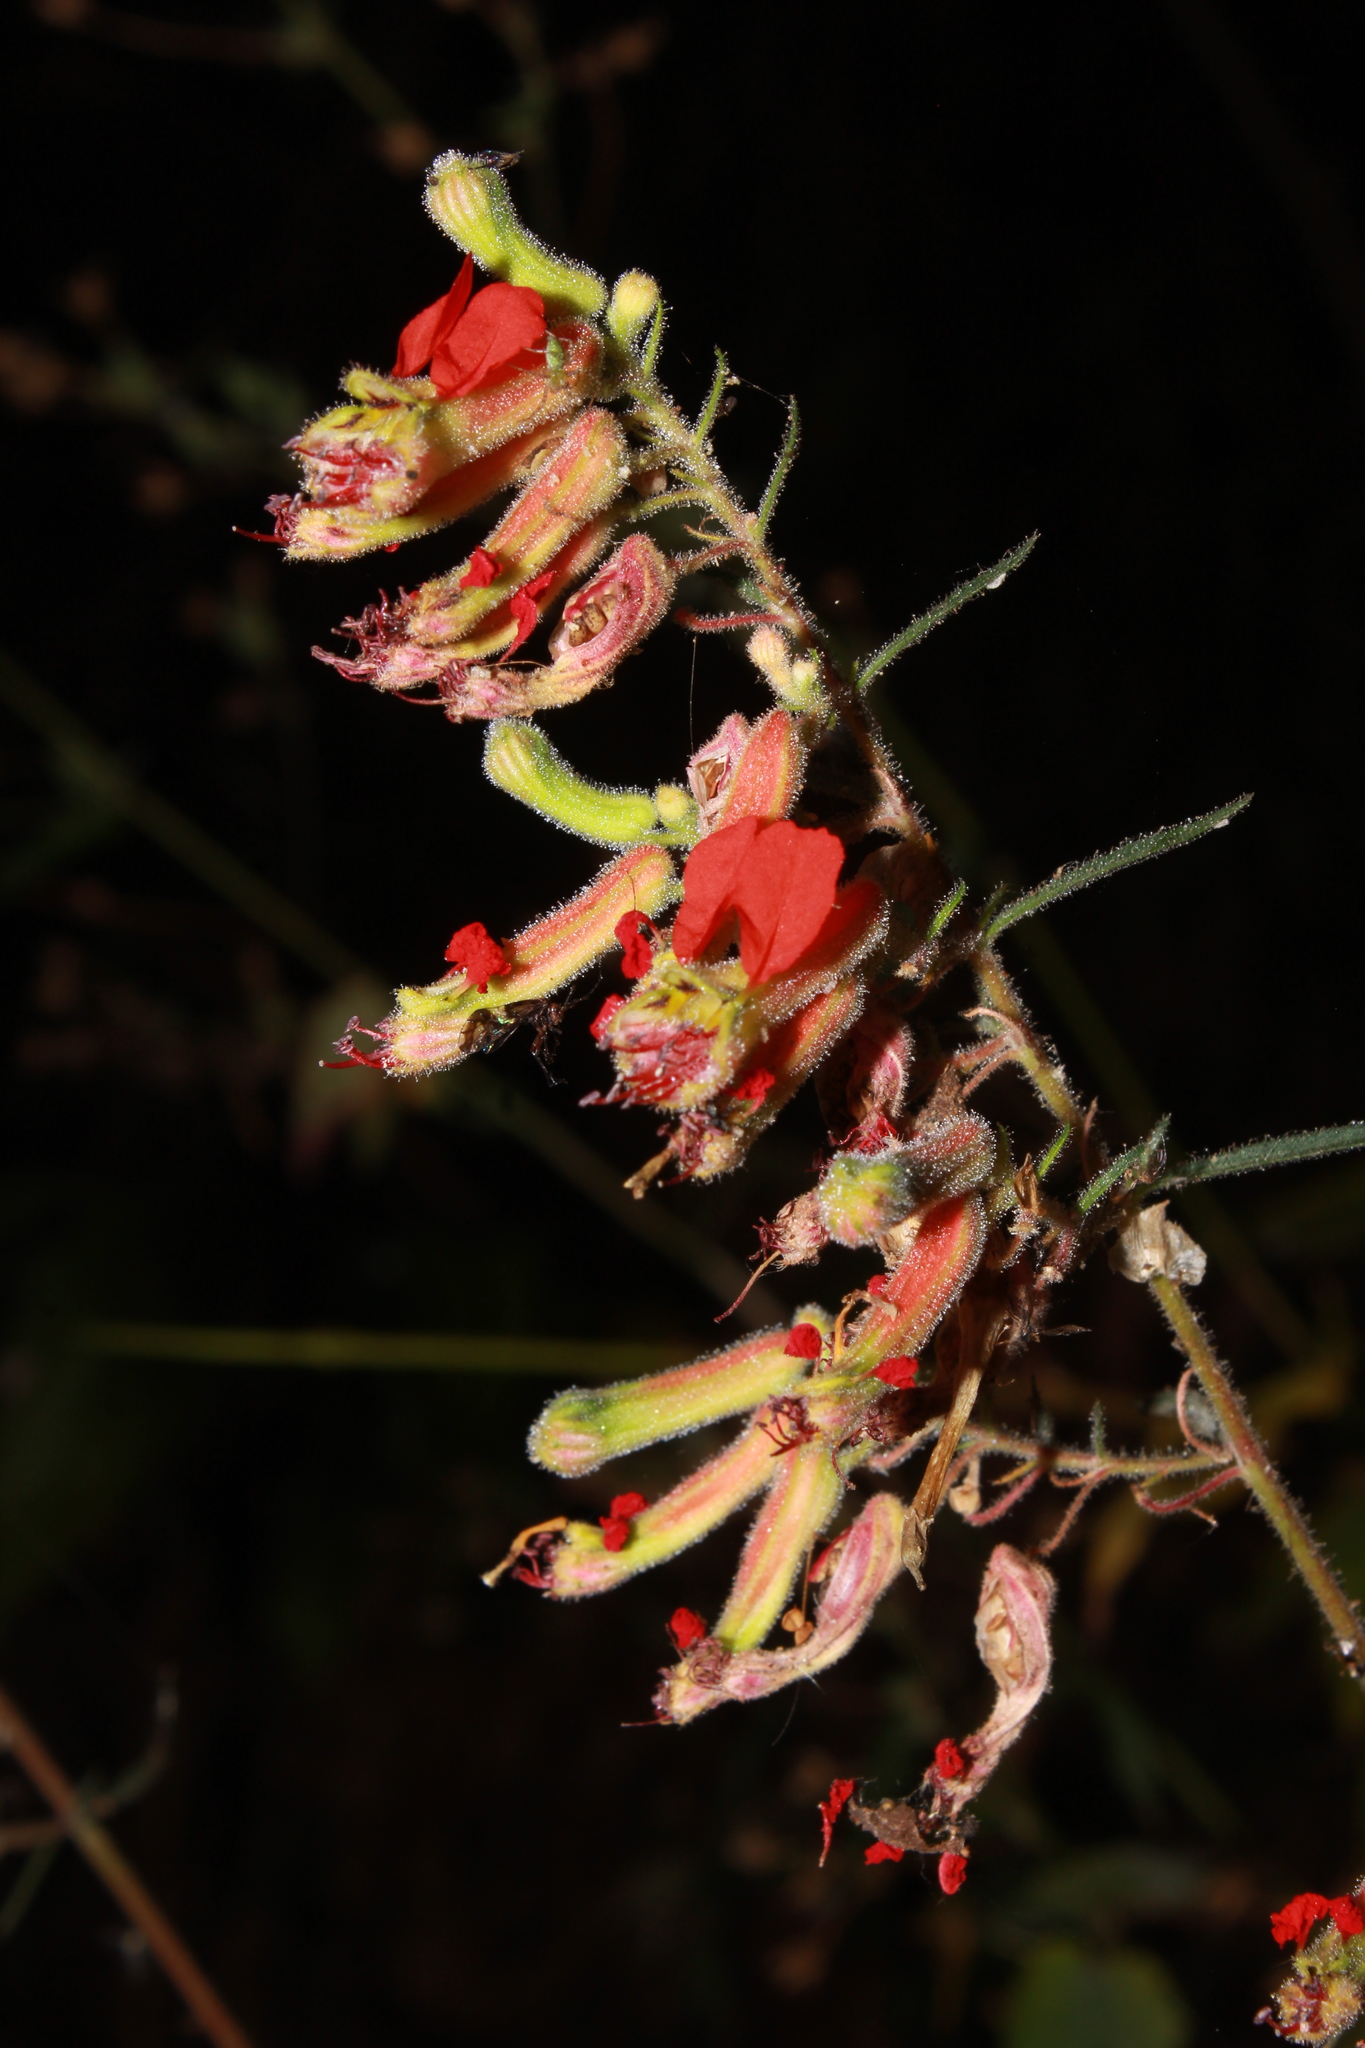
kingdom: Plantae
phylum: Tracheophyta
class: Magnoliopsida
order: Myrtales
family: Lythraceae
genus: Cuphea
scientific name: Cuphea hookeriana
